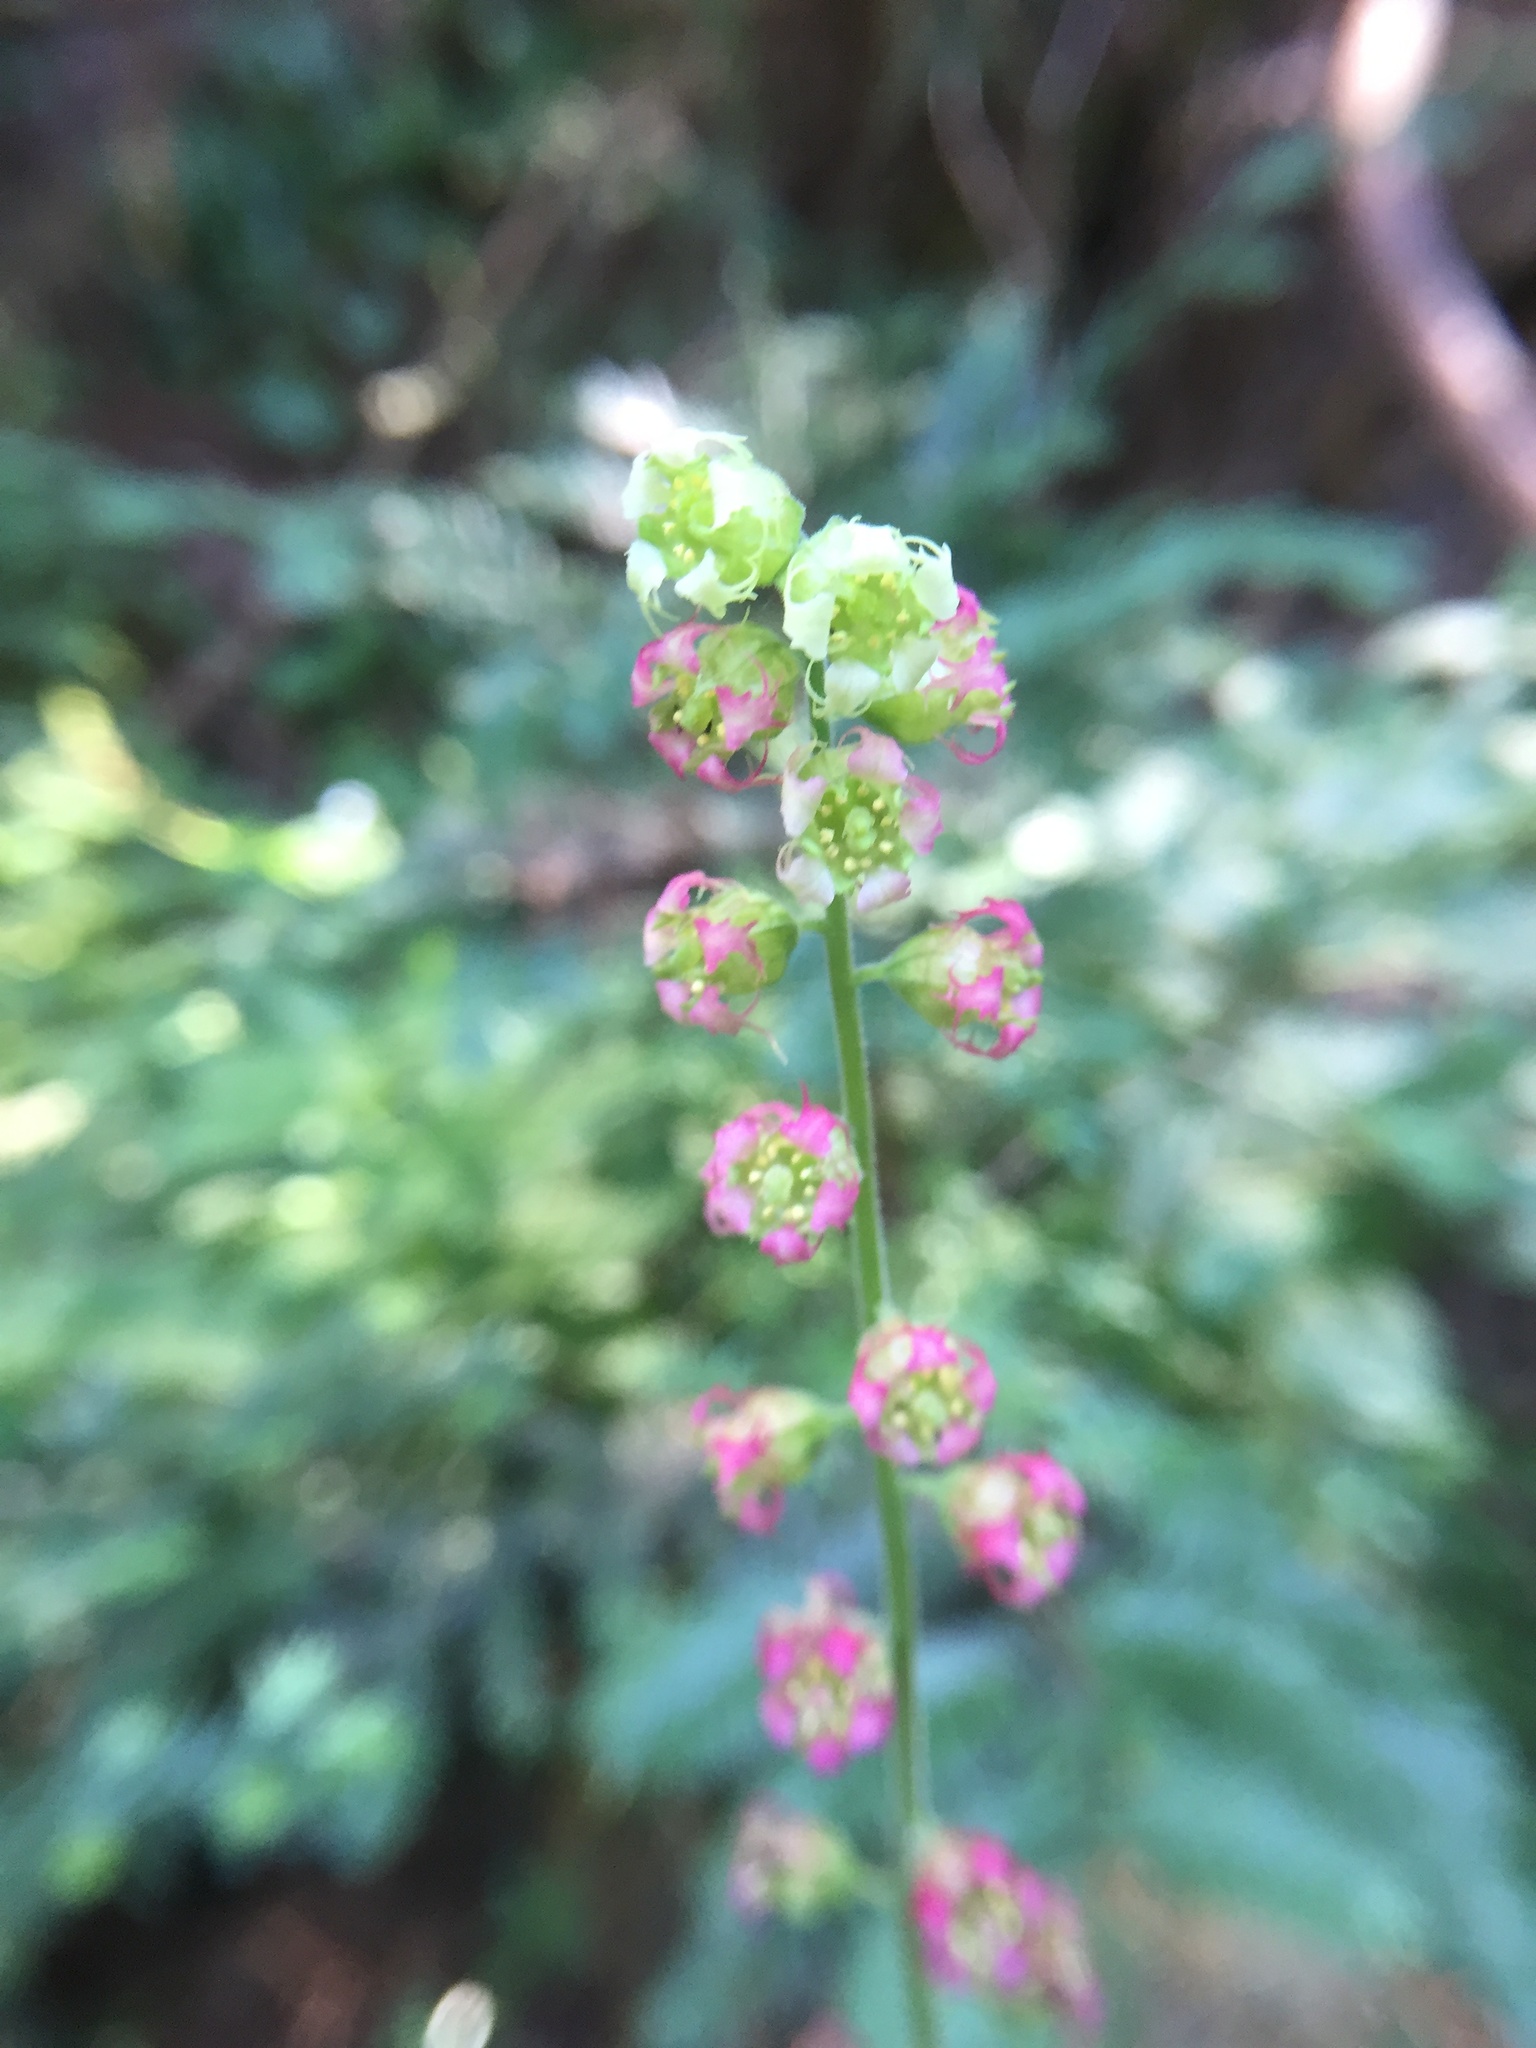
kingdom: Plantae
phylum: Tracheophyta
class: Magnoliopsida
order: Saxifragales
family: Saxifragaceae
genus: Tellima
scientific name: Tellima grandiflora
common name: Fringecups
